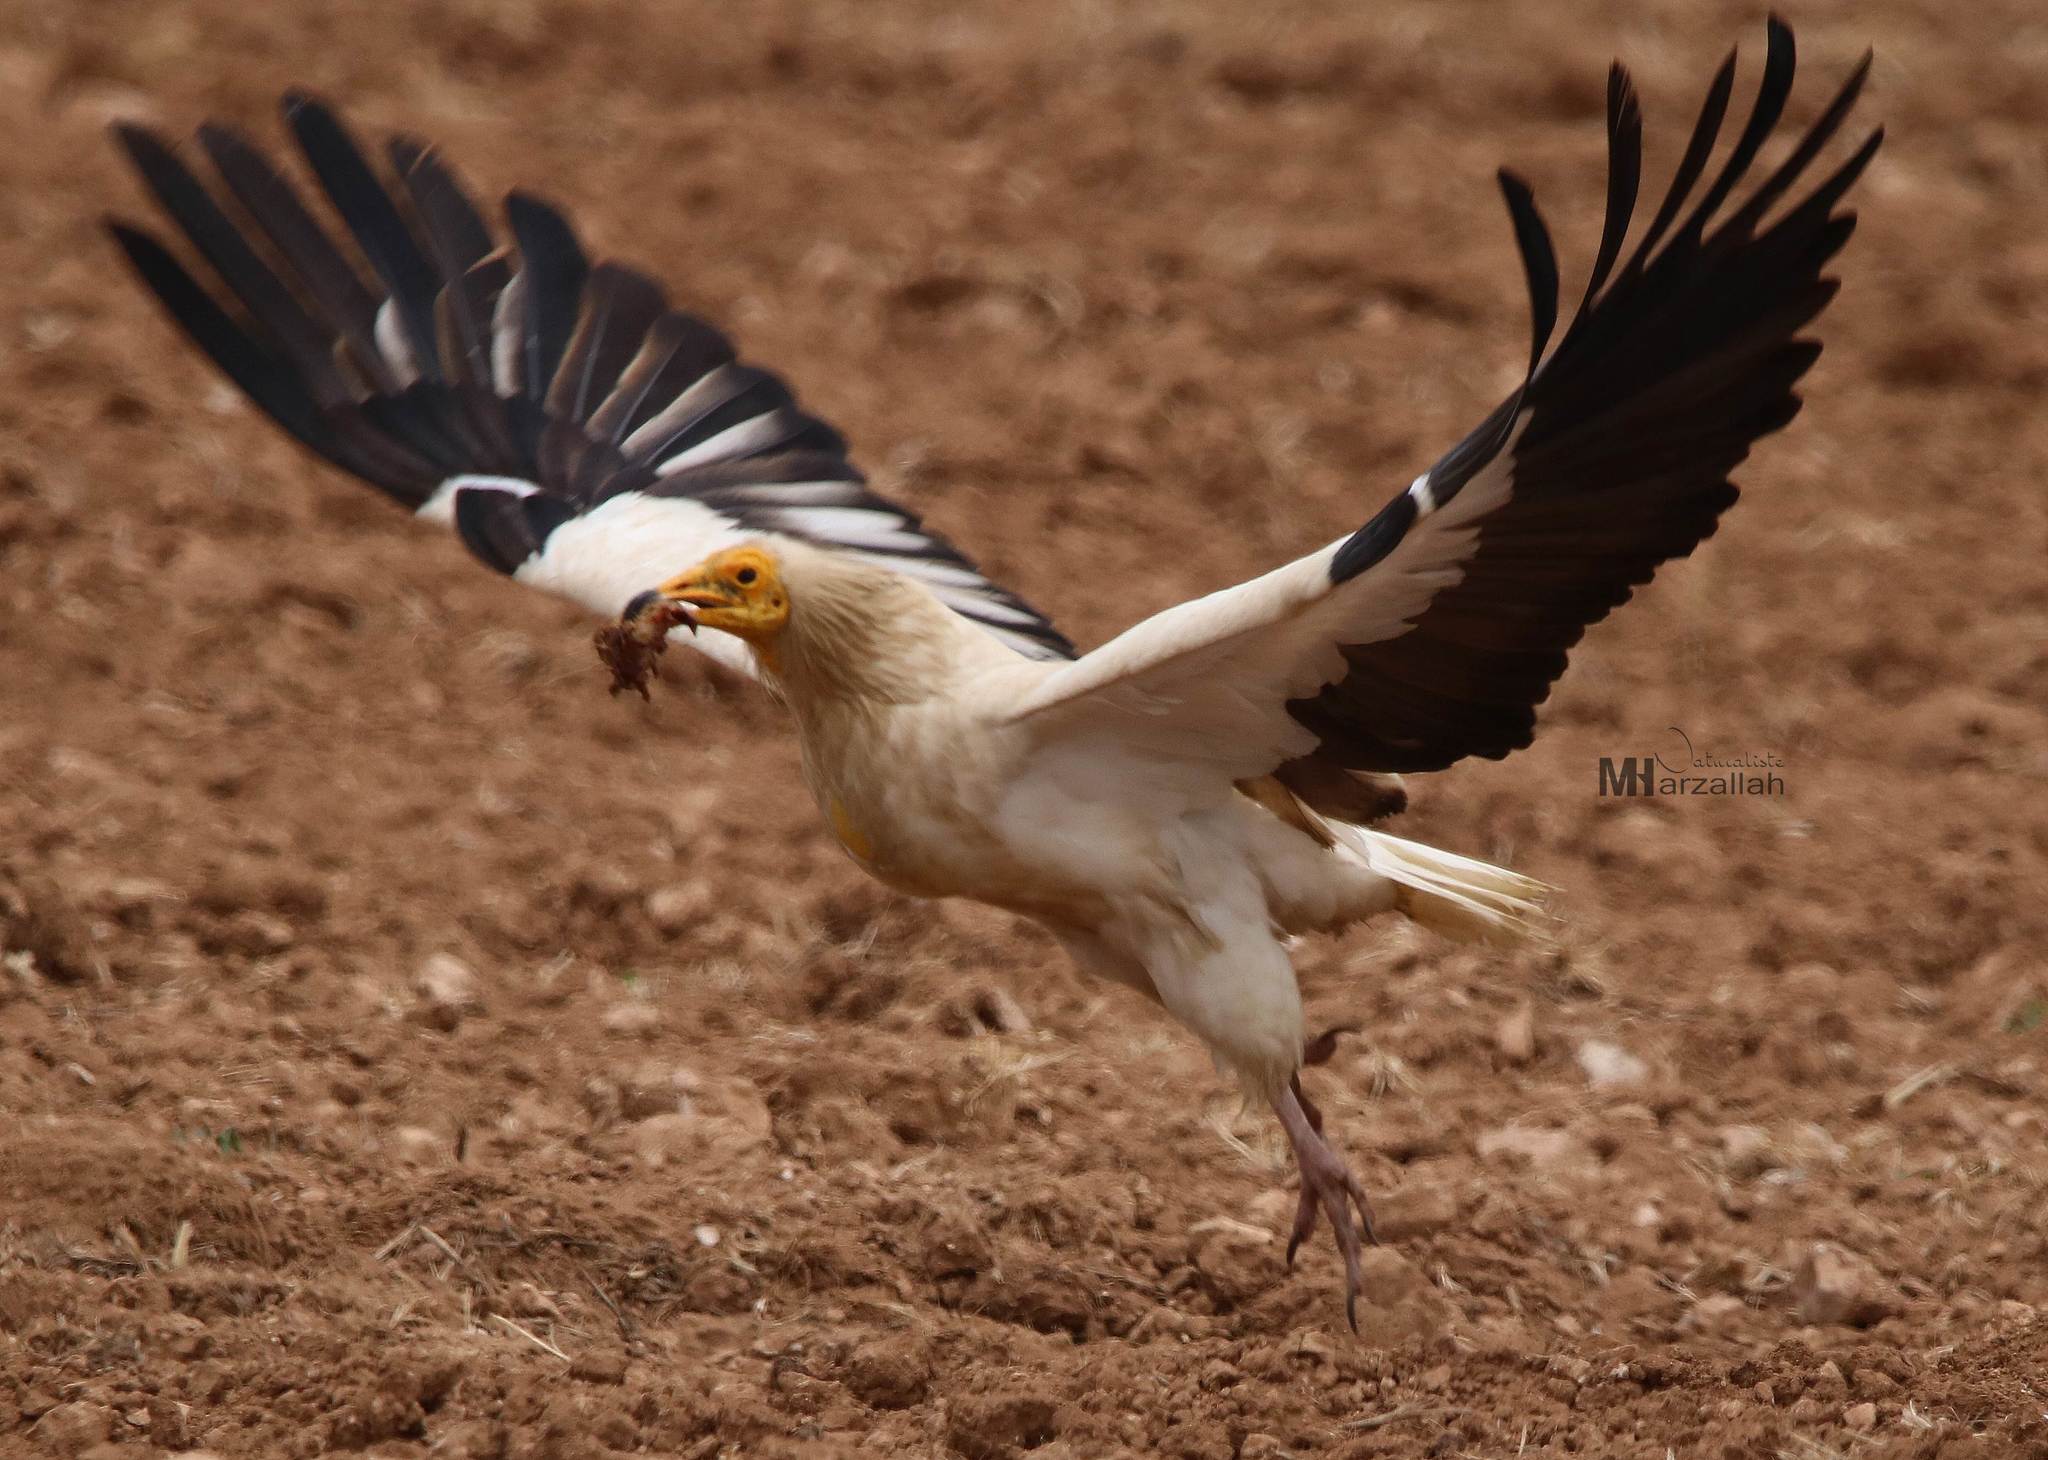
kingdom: Animalia
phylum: Chordata
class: Aves
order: Accipitriformes
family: Accipitridae
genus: Neophron
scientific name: Neophron percnopterus
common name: Egyptian vulture
